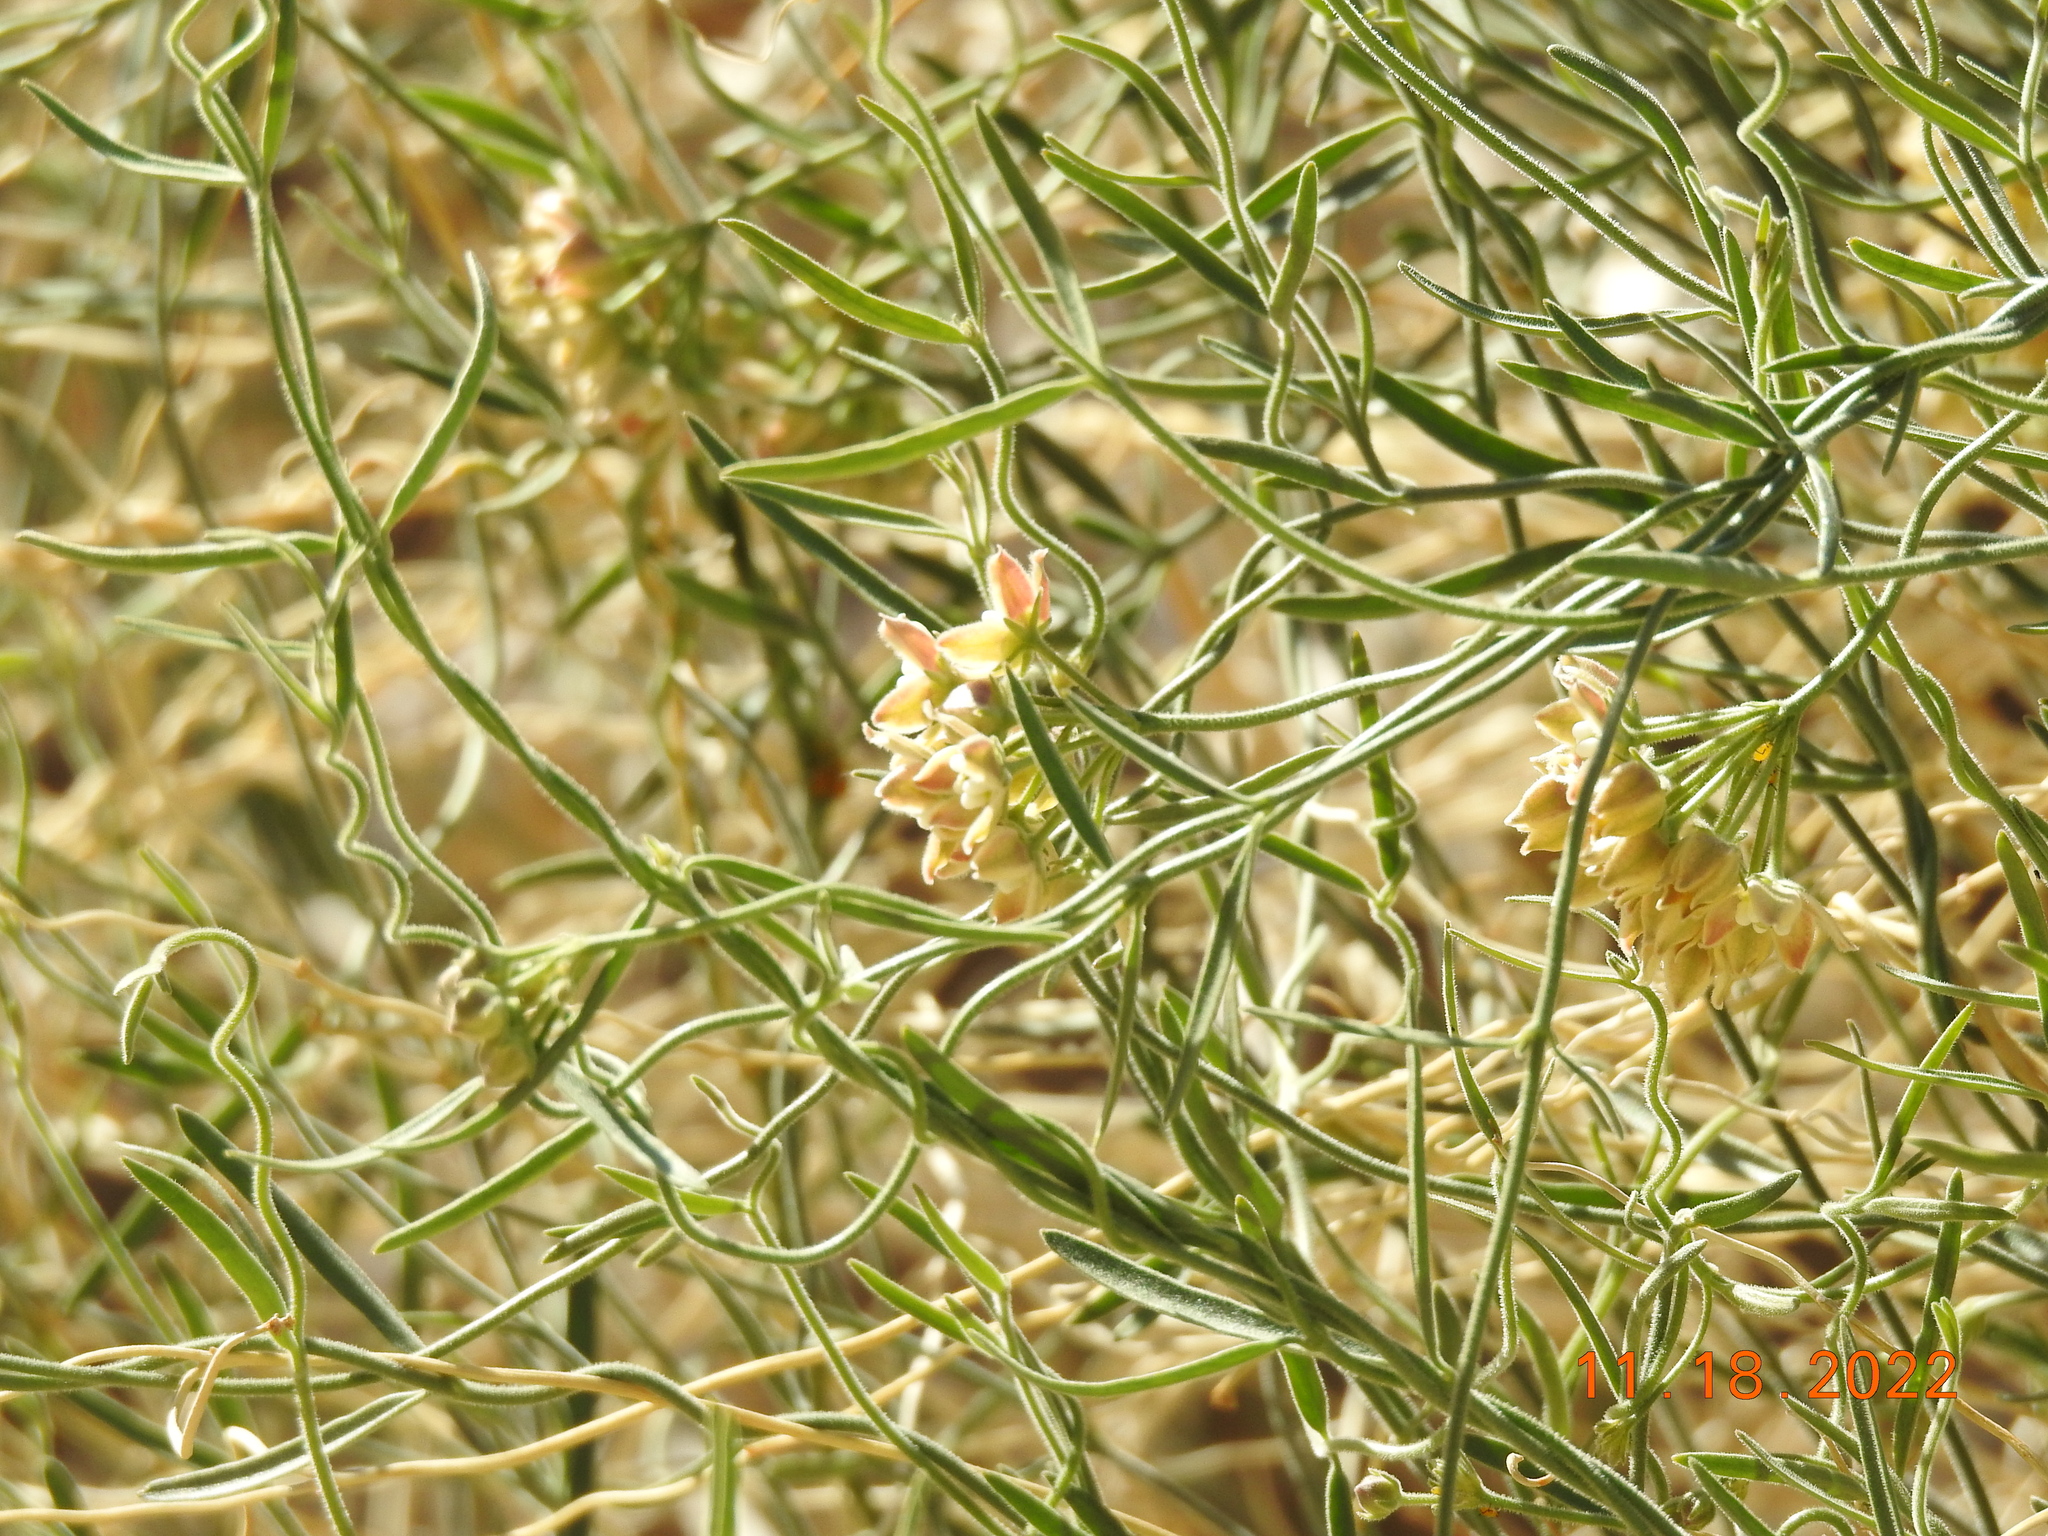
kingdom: Plantae
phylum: Tracheophyta
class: Magnoliopsida
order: Gentianales
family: Apocynaceae
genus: Funastrum
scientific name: Funastrum hirtellum
